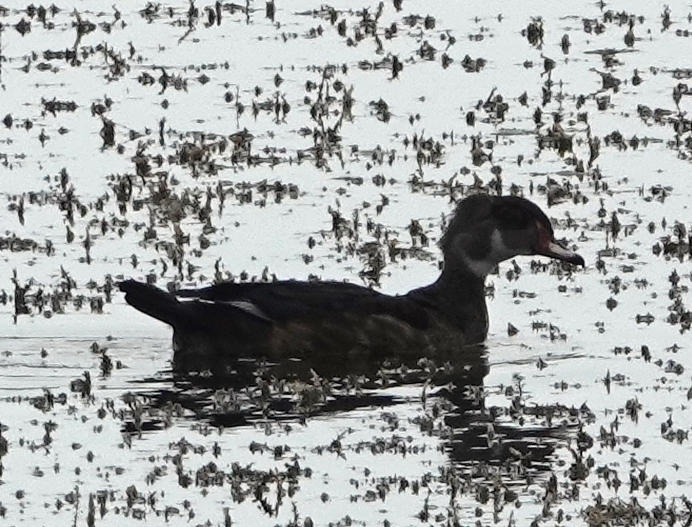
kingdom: Animalia
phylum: Chordata
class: Aves
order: Anseriformes
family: Anatidae
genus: Aix
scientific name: Aix sponsa
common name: Wood duck
